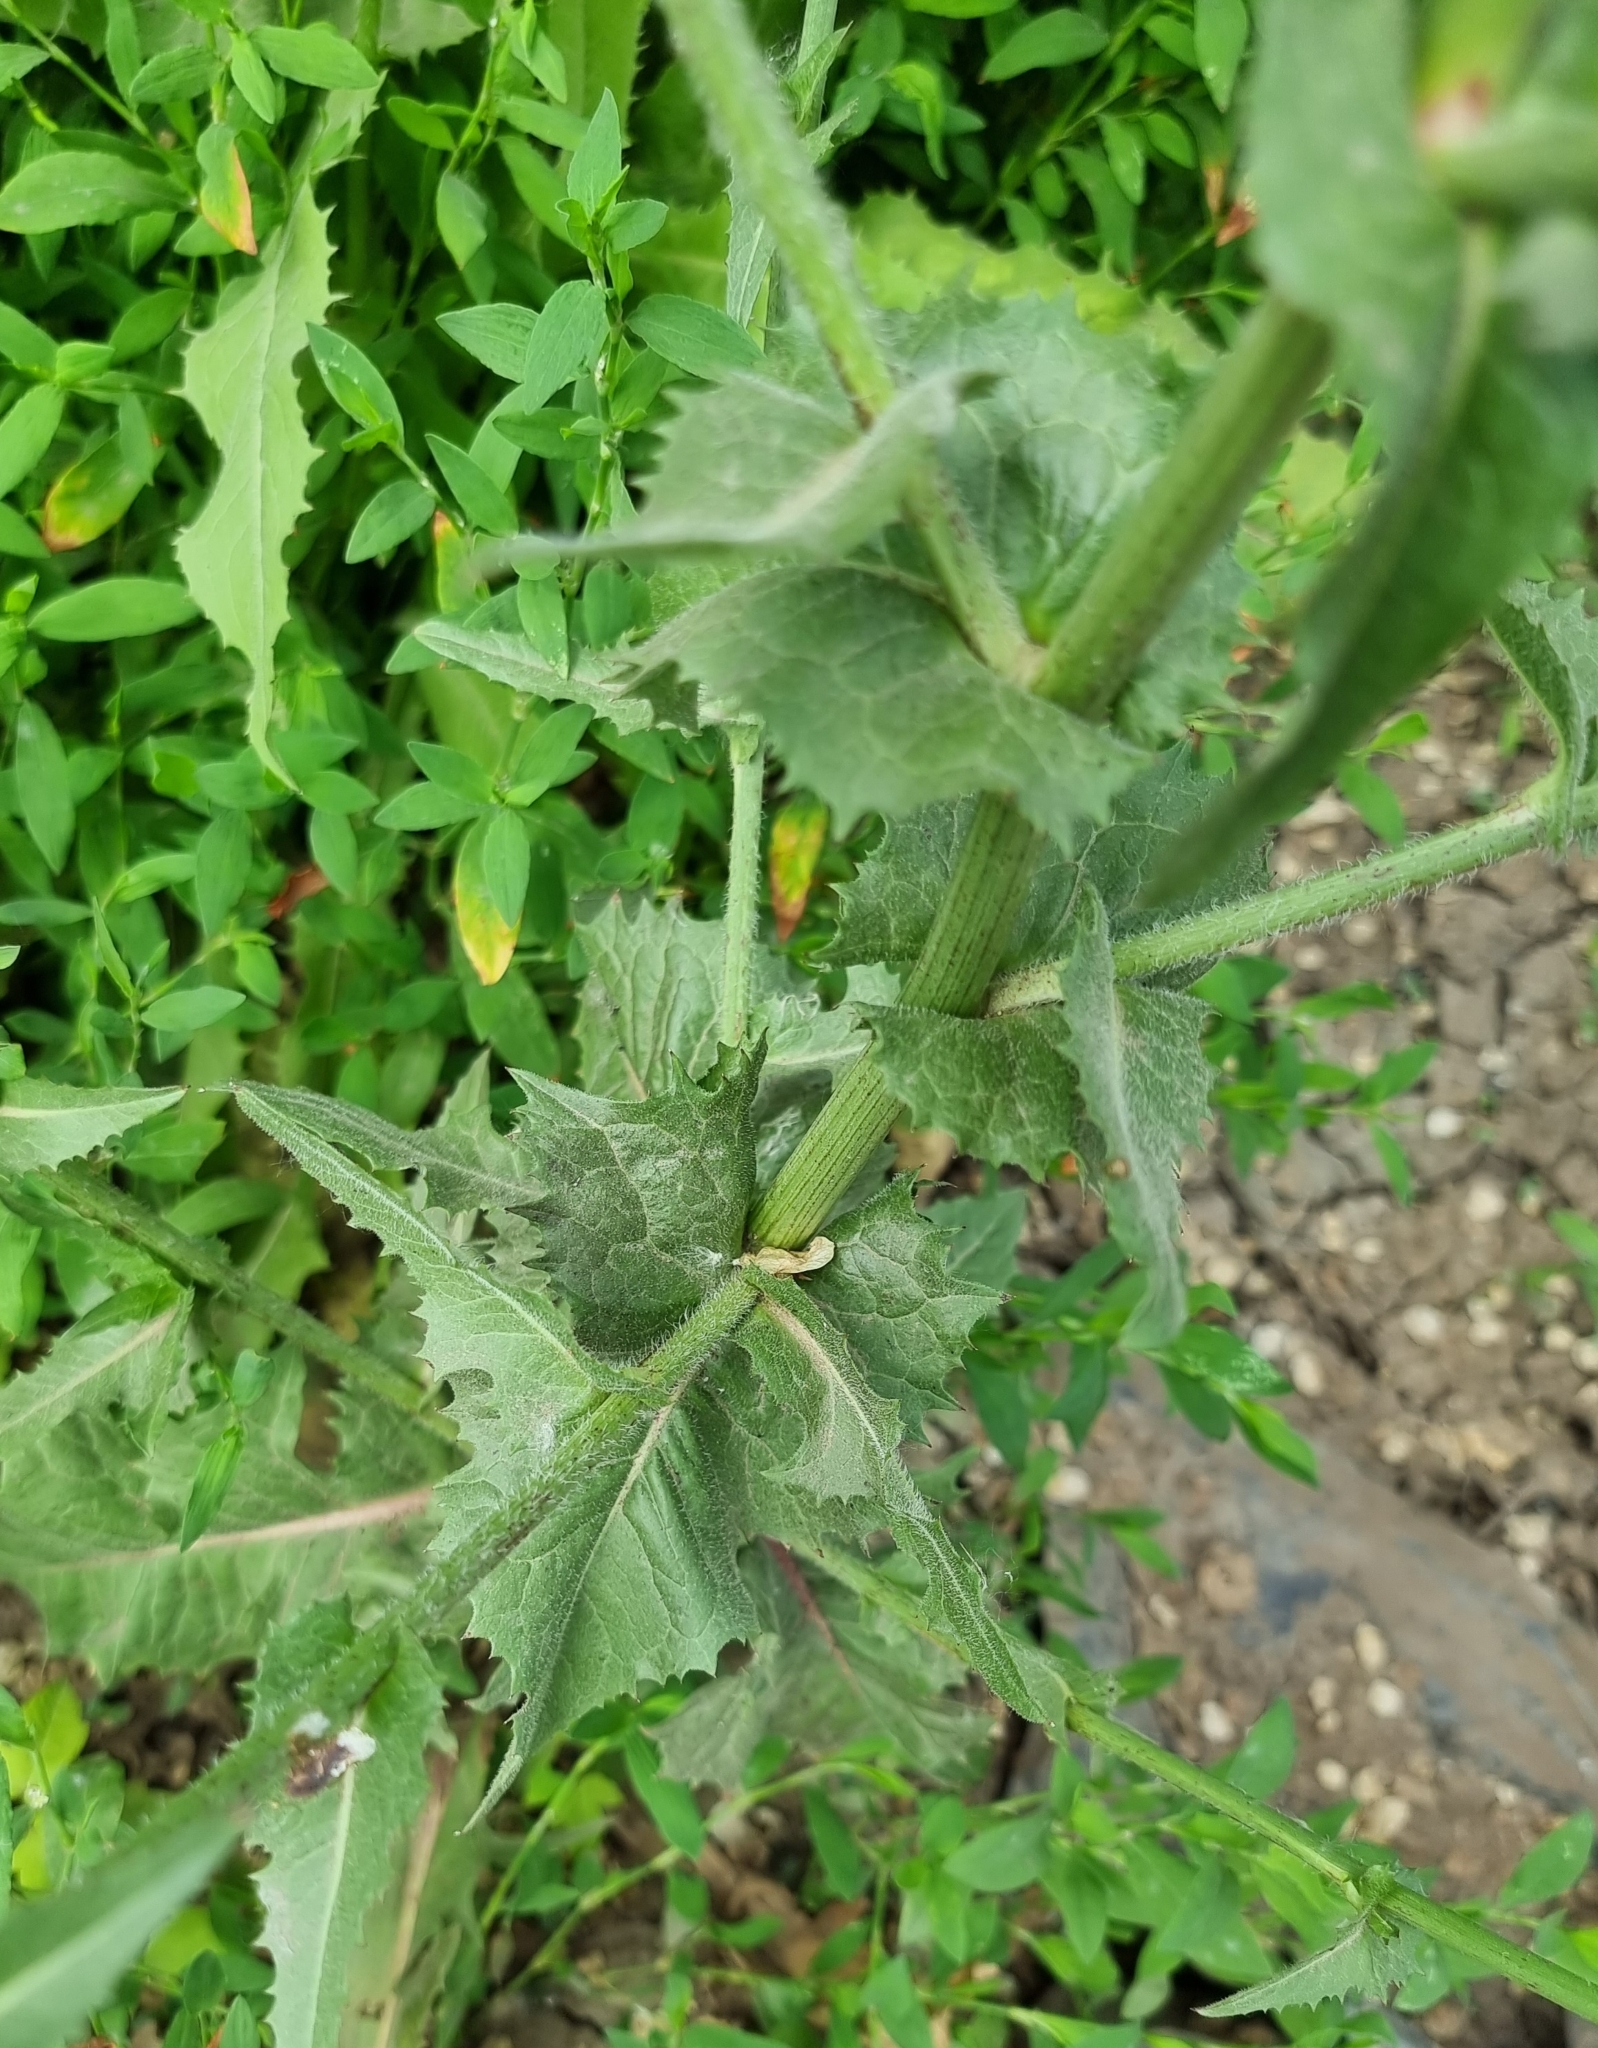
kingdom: Plantae
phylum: Tracheophyta
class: Magnoliopsida
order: Asterales
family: Asteraceae
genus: Cichorium
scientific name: Cichorium intybus
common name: Chicory
